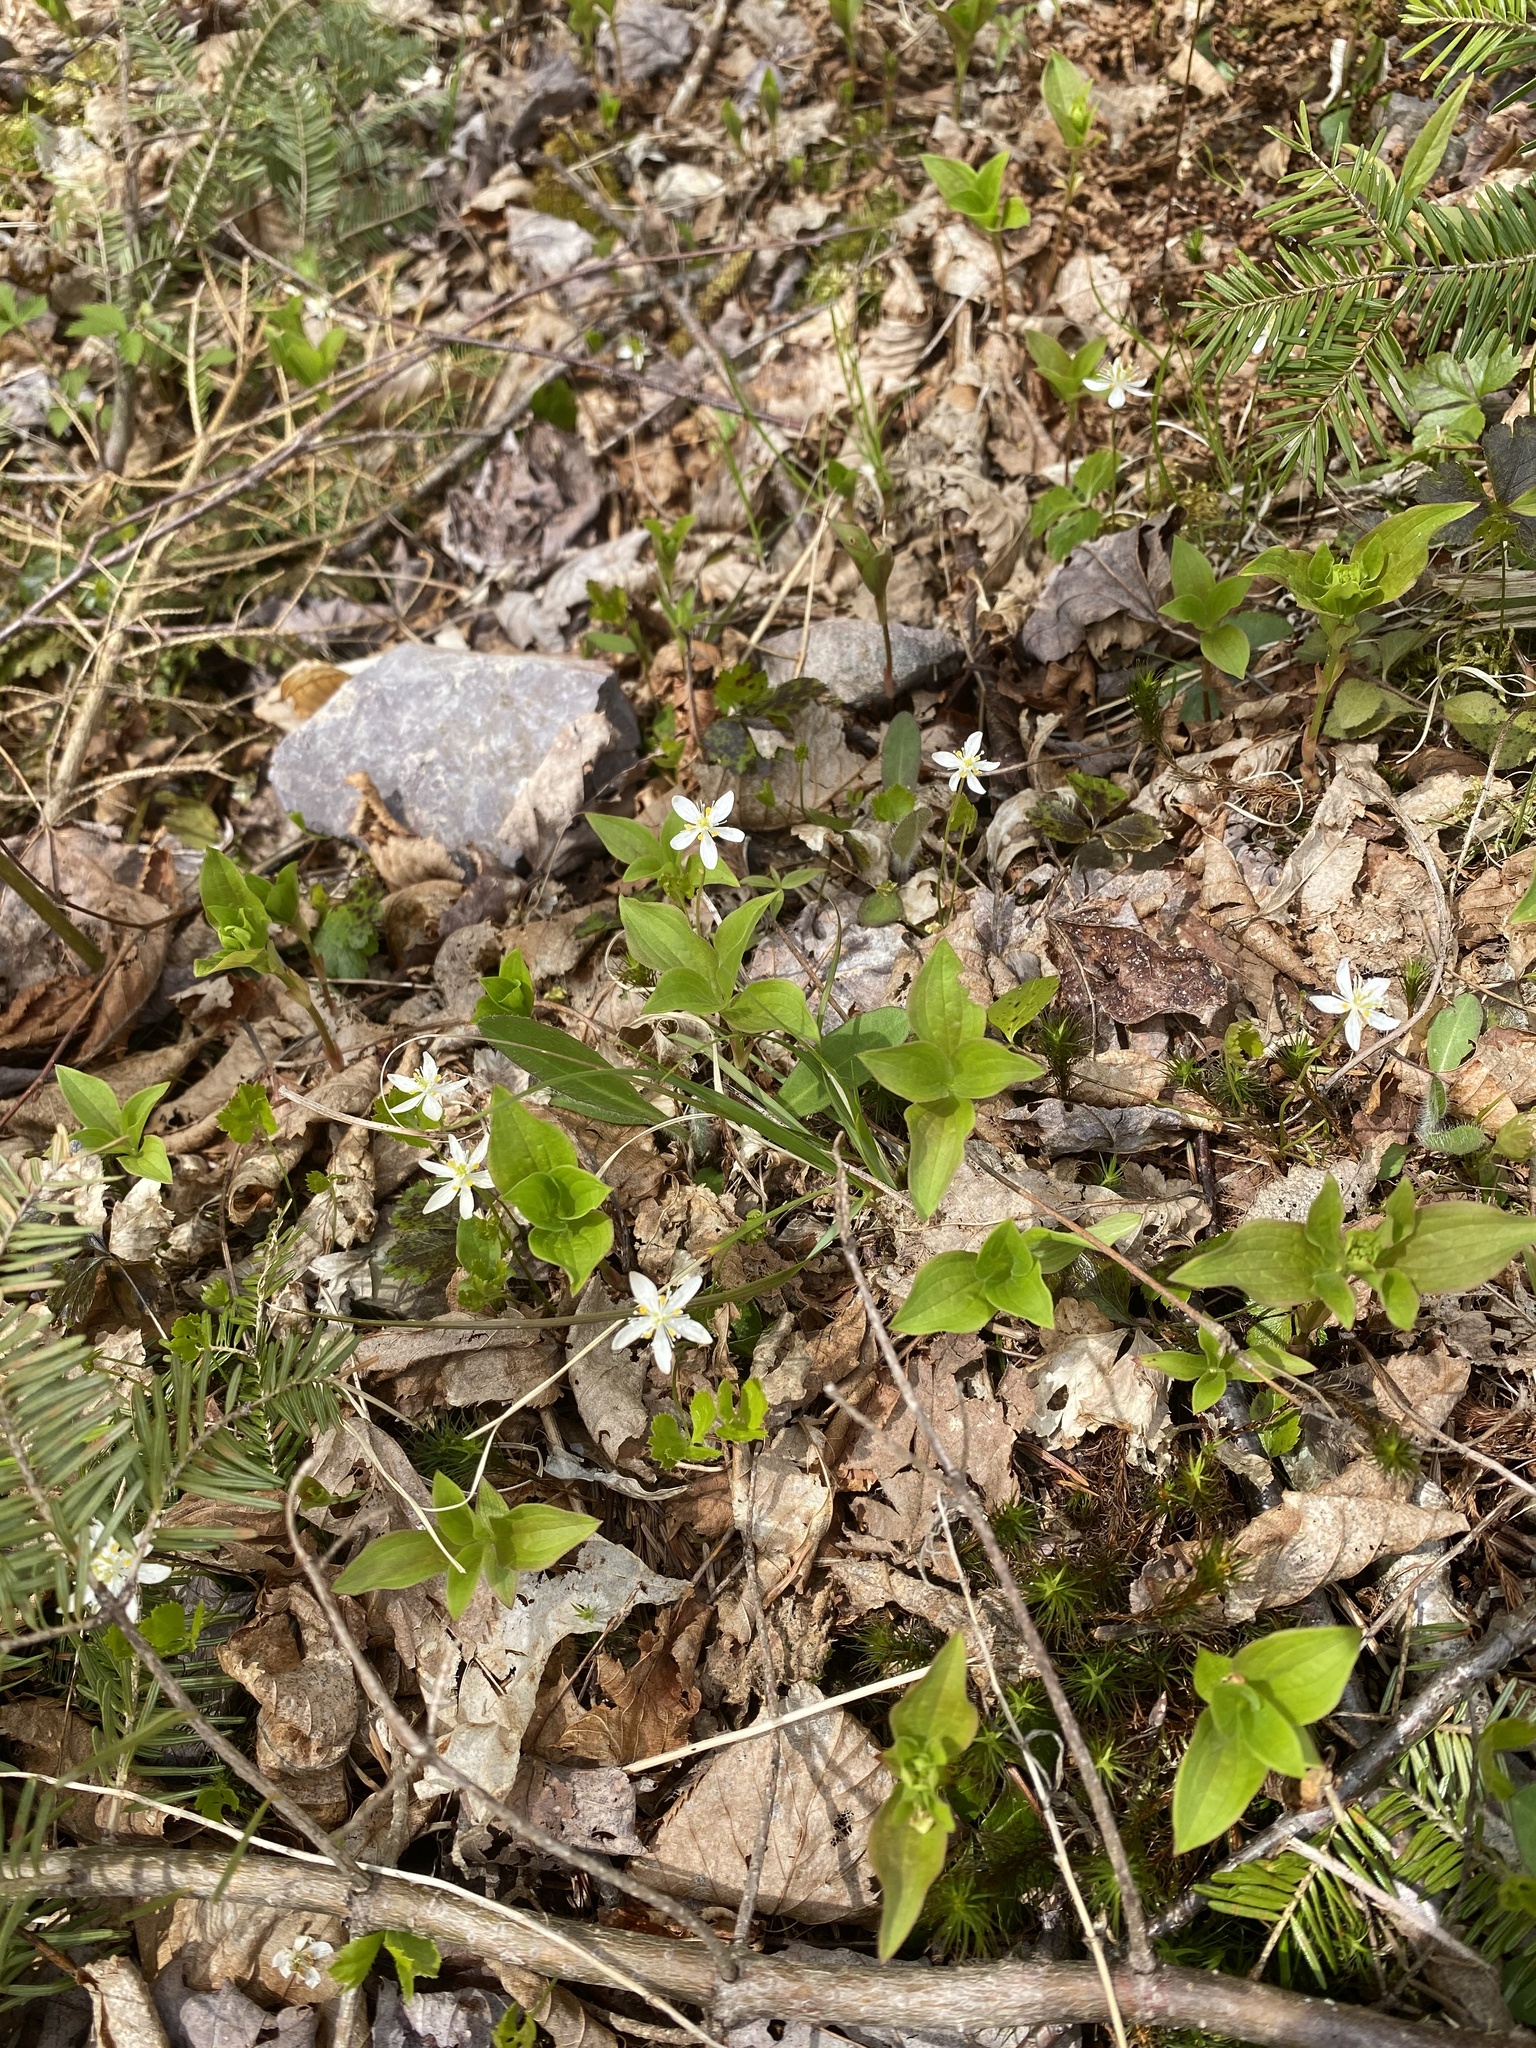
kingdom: Plantae
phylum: Tracheophyta
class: Magnoliopsida
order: Ranunculales
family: Ranunculaceae
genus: Coptis
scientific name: Coptis trifolia
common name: Canker-root
